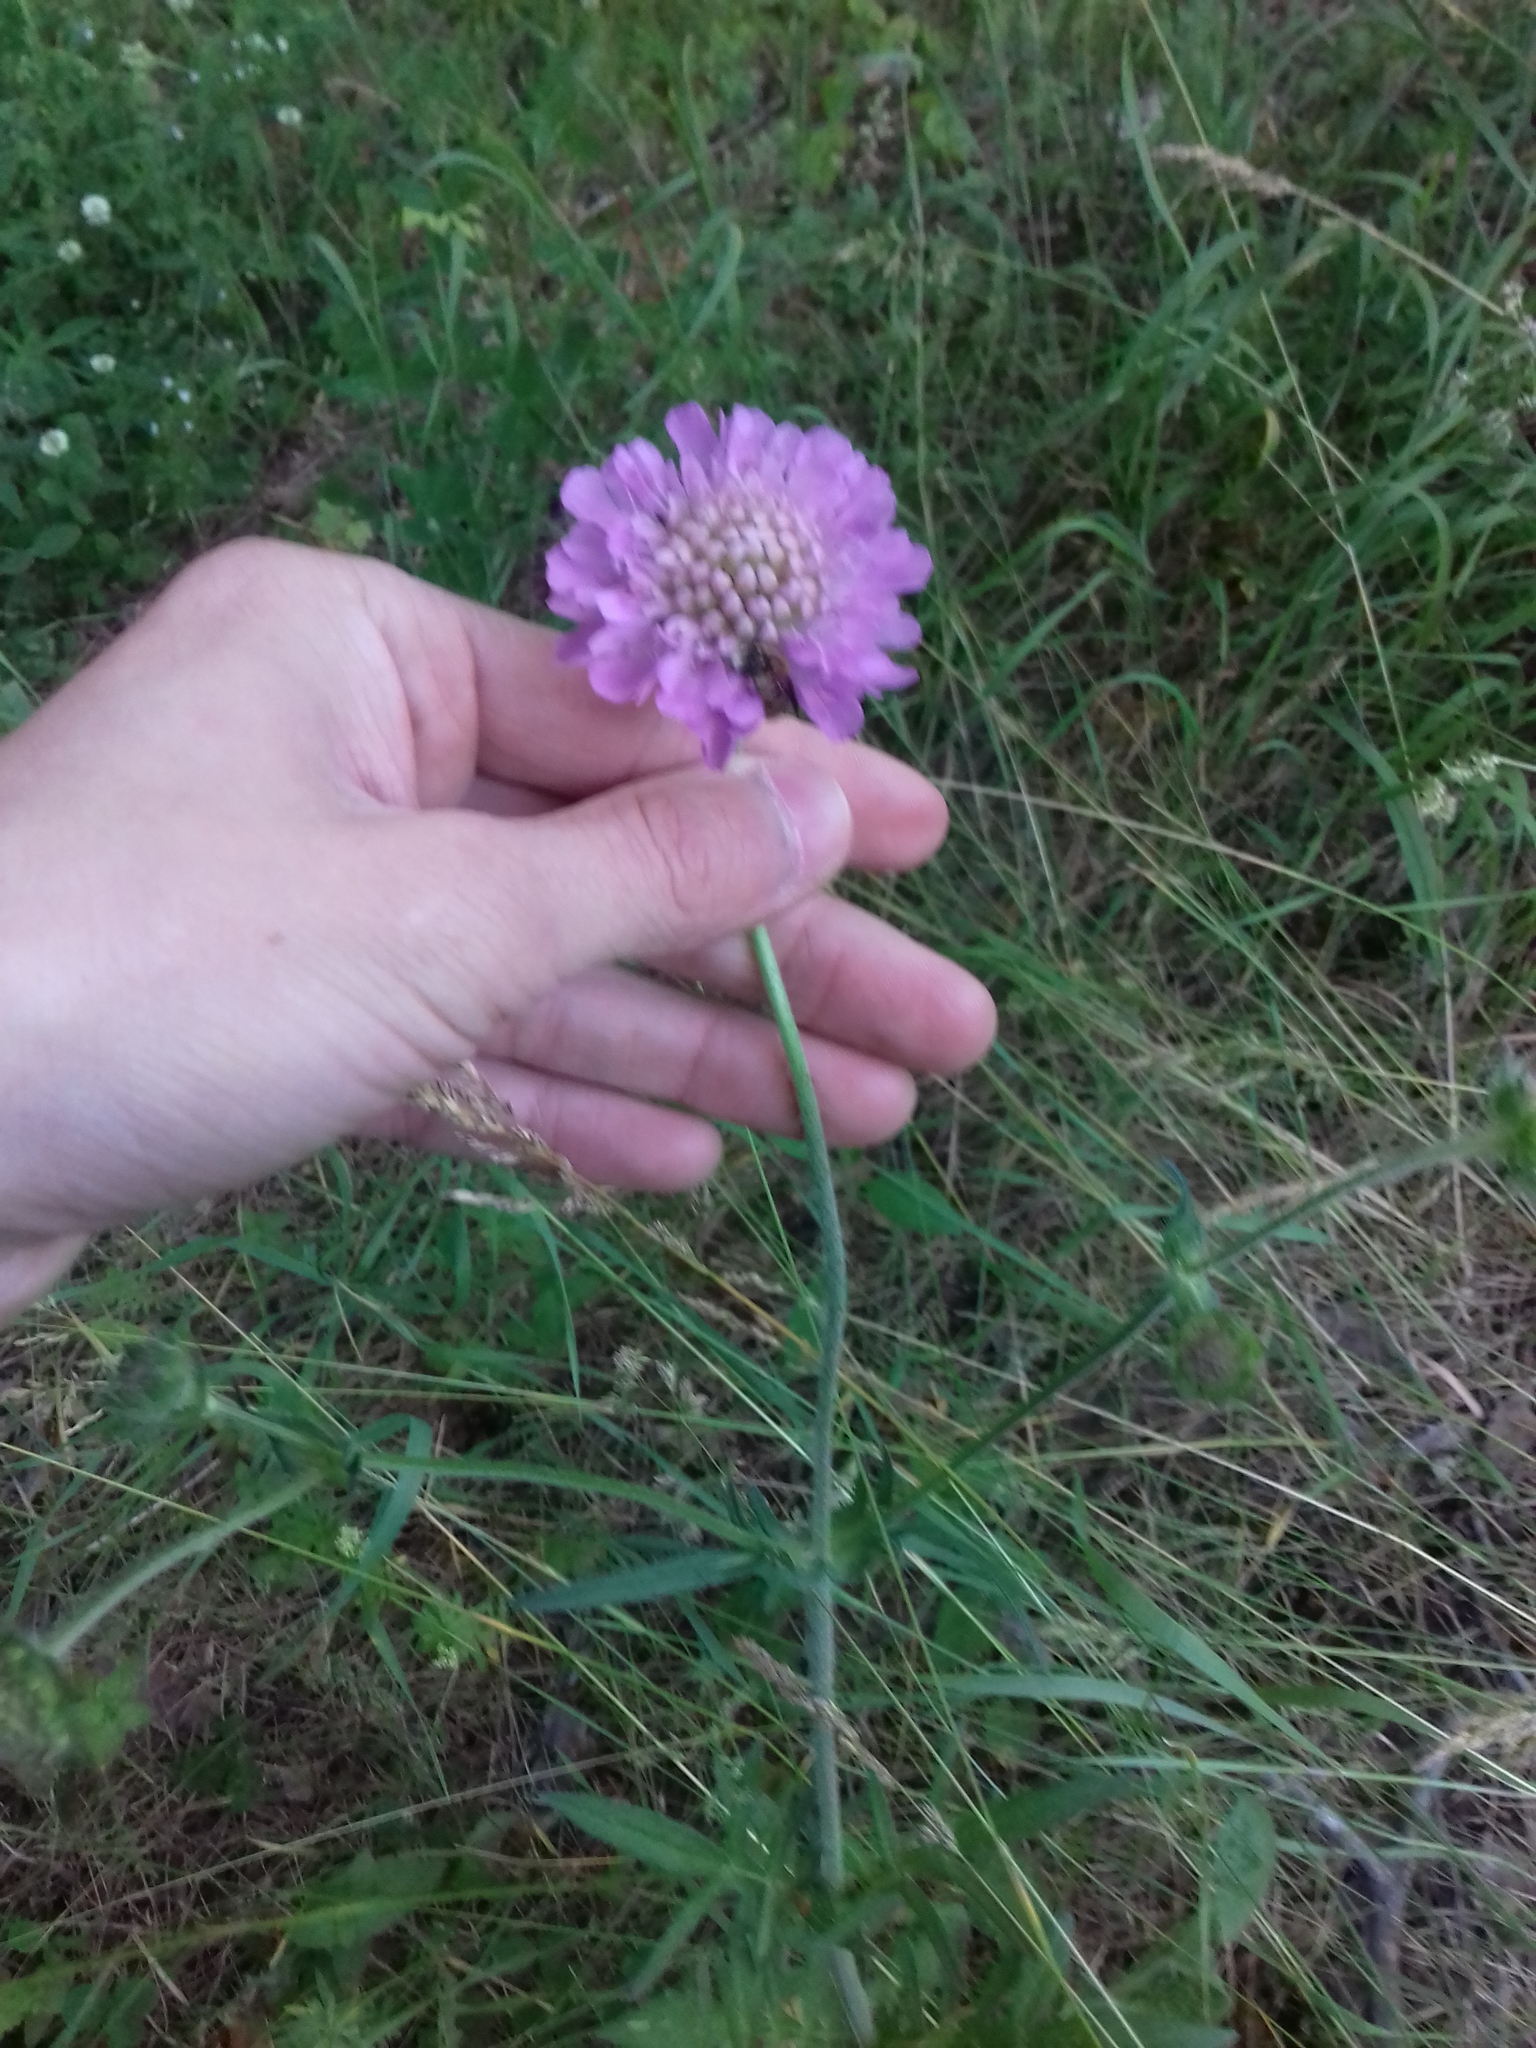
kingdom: Plantae
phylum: Tracheophyta
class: Magnoliopsida
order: Dipsacales
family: Caprifoliaceae
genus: Knautia
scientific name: Knautia arvensis
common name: Field scabiosa
